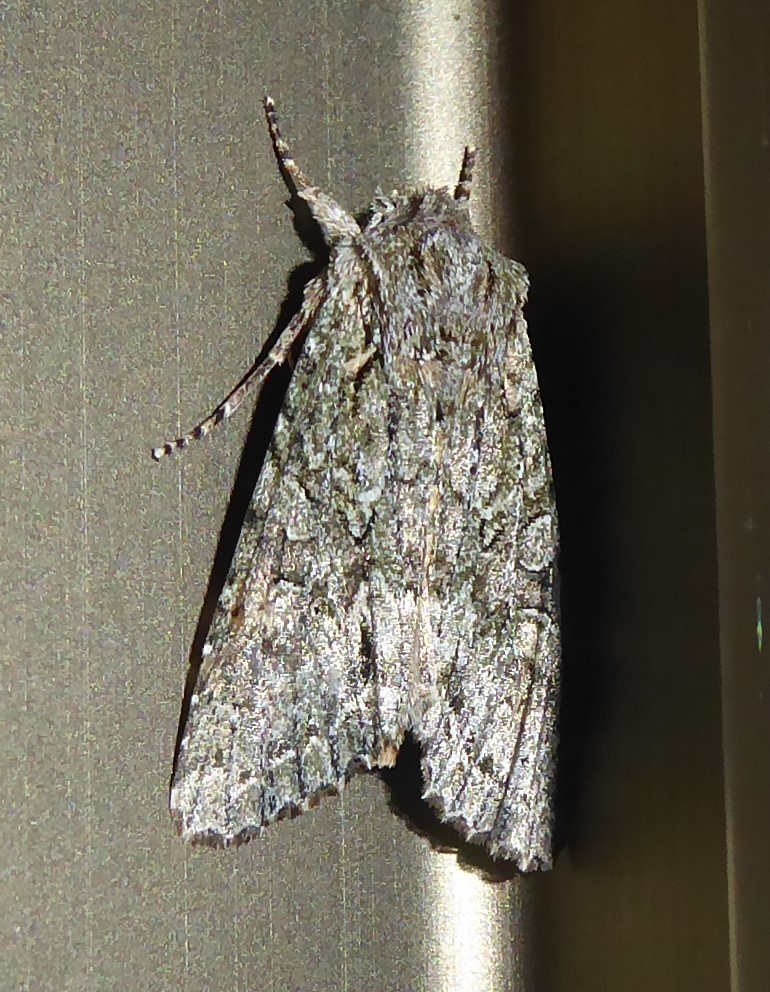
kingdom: Animalia
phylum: Arthropoda
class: Insecta
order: Lepidoptera
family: Noctuidae
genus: Ichneutica
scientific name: Ichneutica mutans
